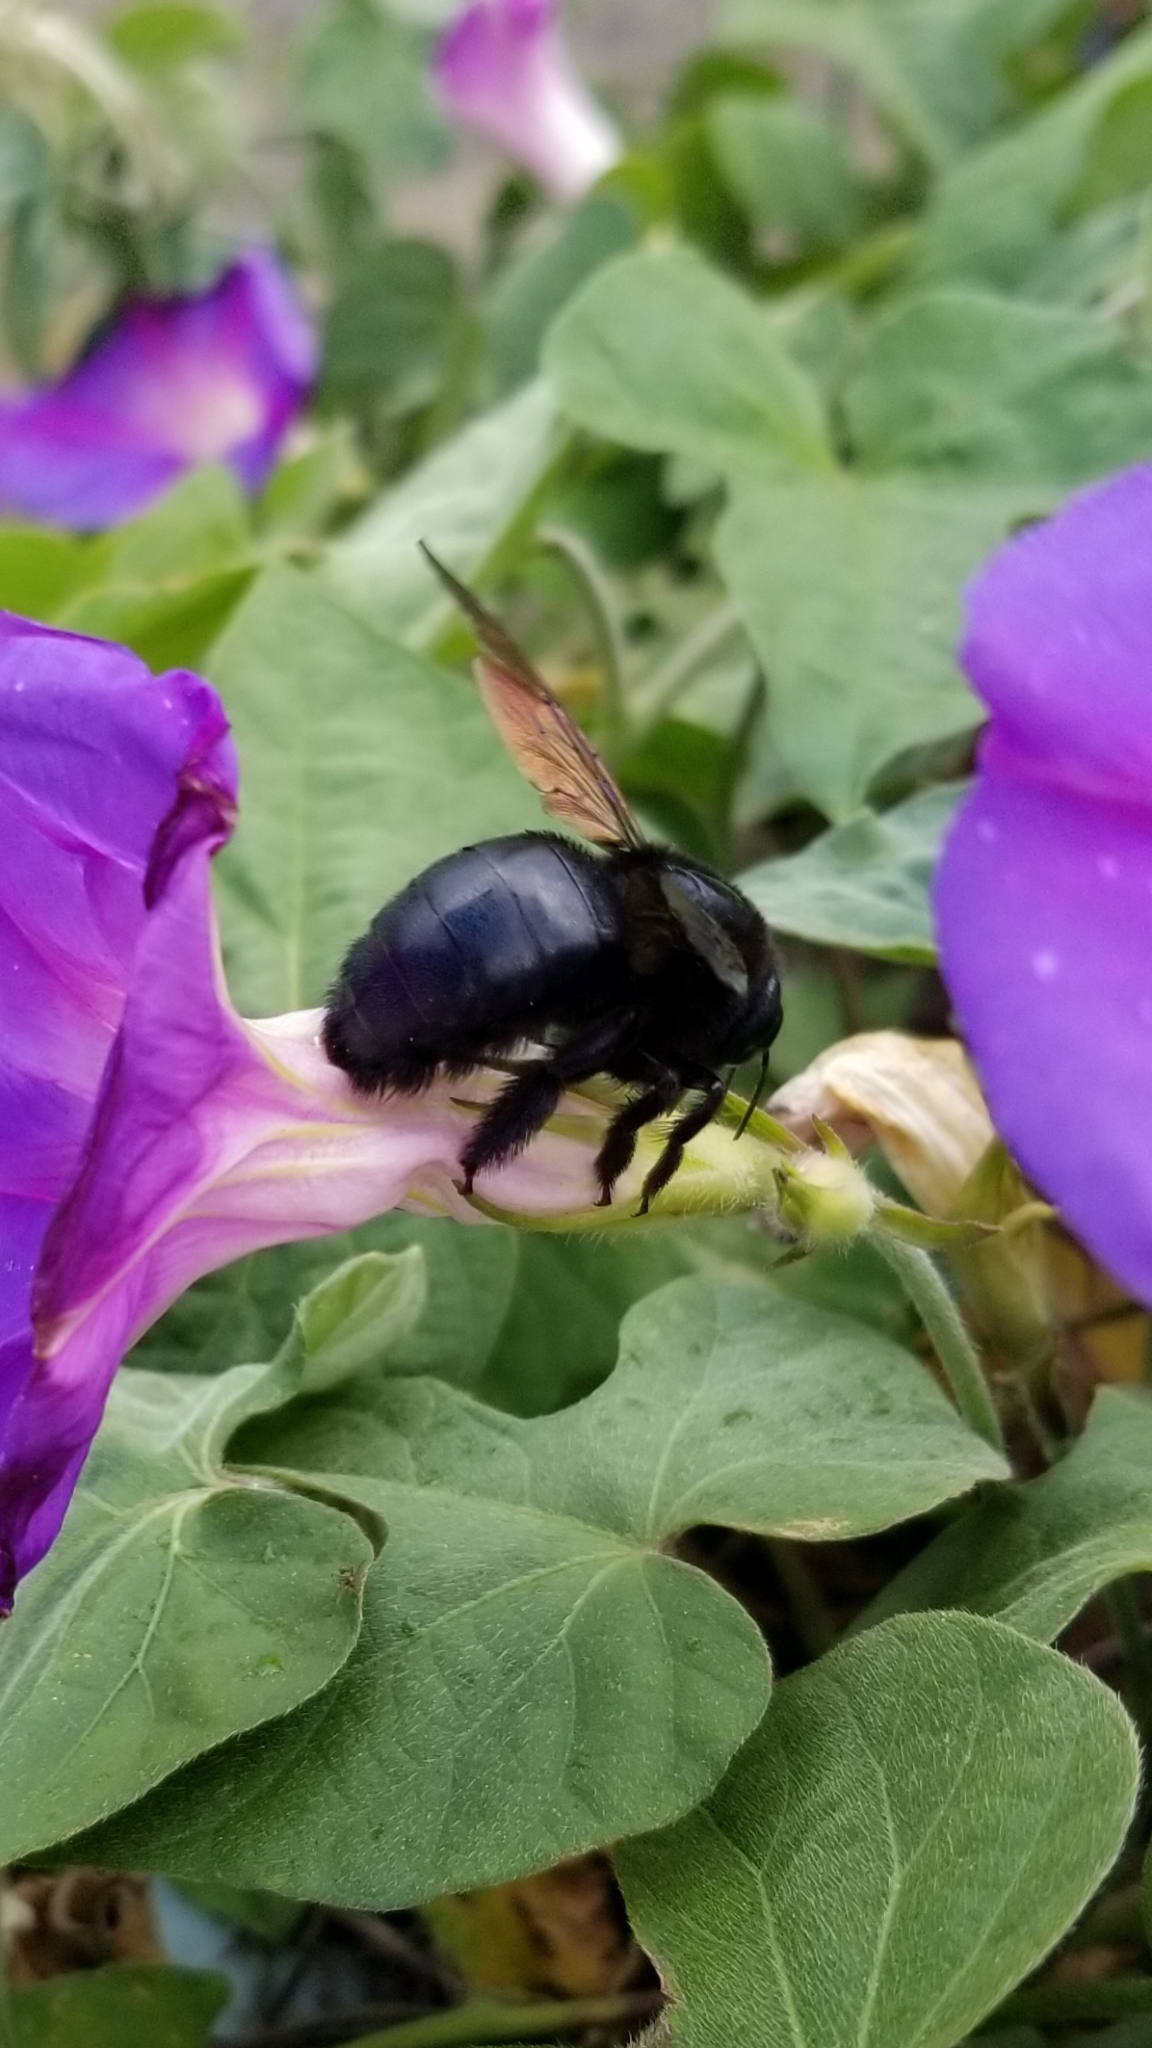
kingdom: Animalia
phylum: Arthropoda
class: Insecta
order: Hymenoptera
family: Apidae
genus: Xylocopa
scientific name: Xylocopa sonorina
